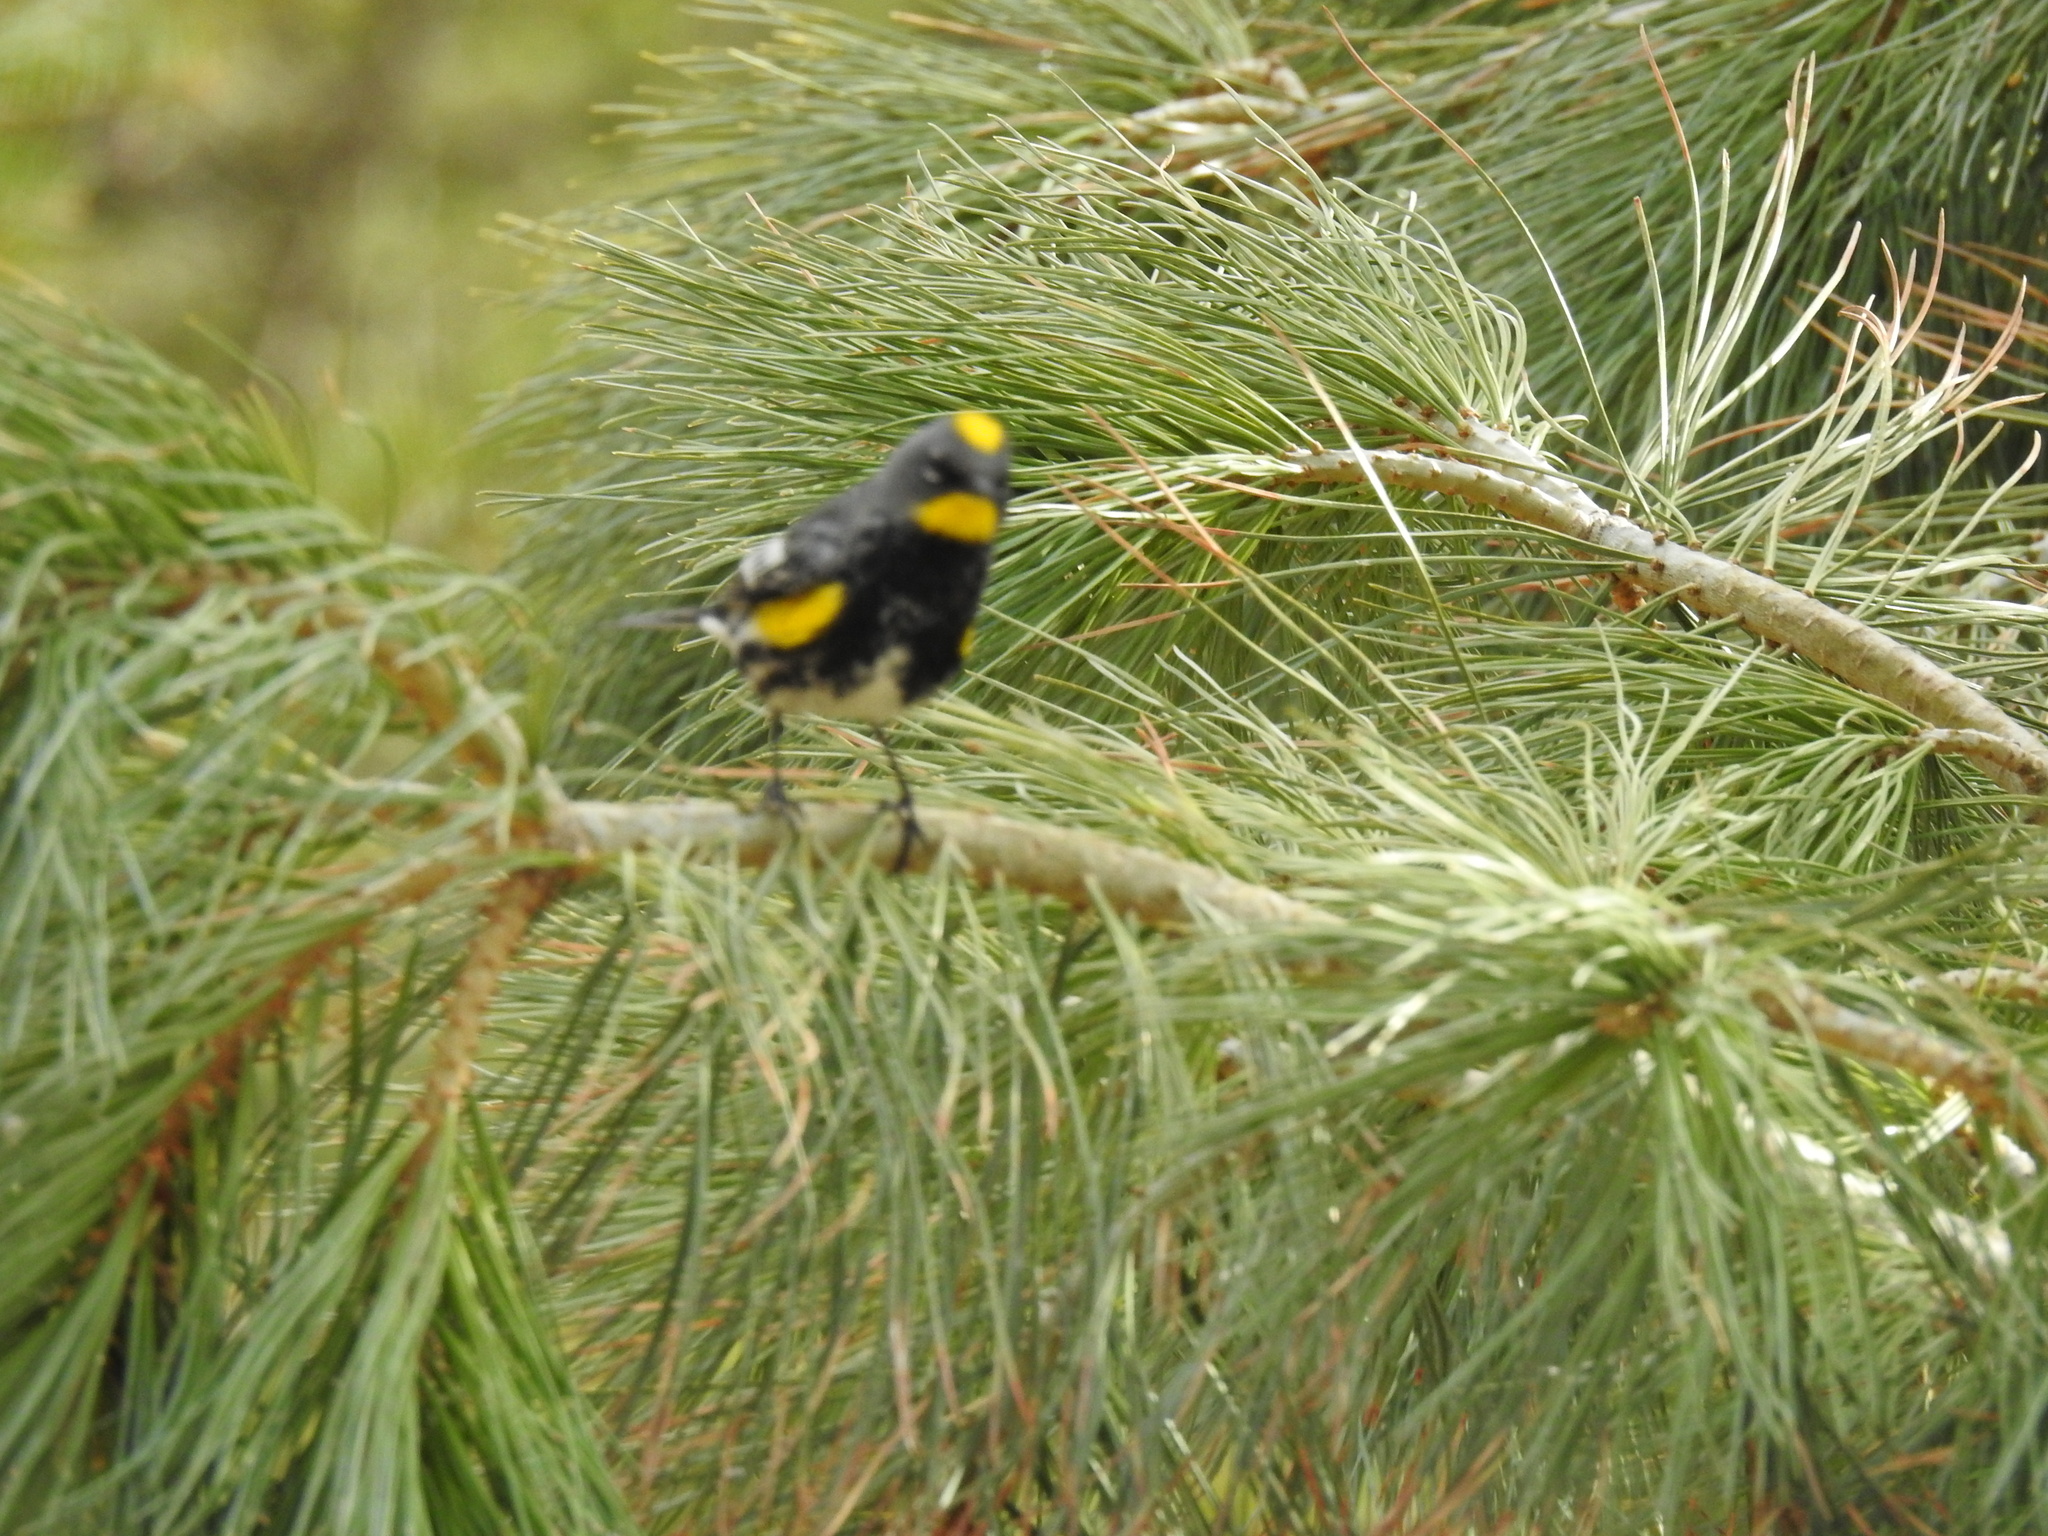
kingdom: Animalia
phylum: Chordata
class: Aves
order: Passeriformes
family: Parulidae
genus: Setophaga
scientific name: Setophaga coronata
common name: Myrtle warbler
